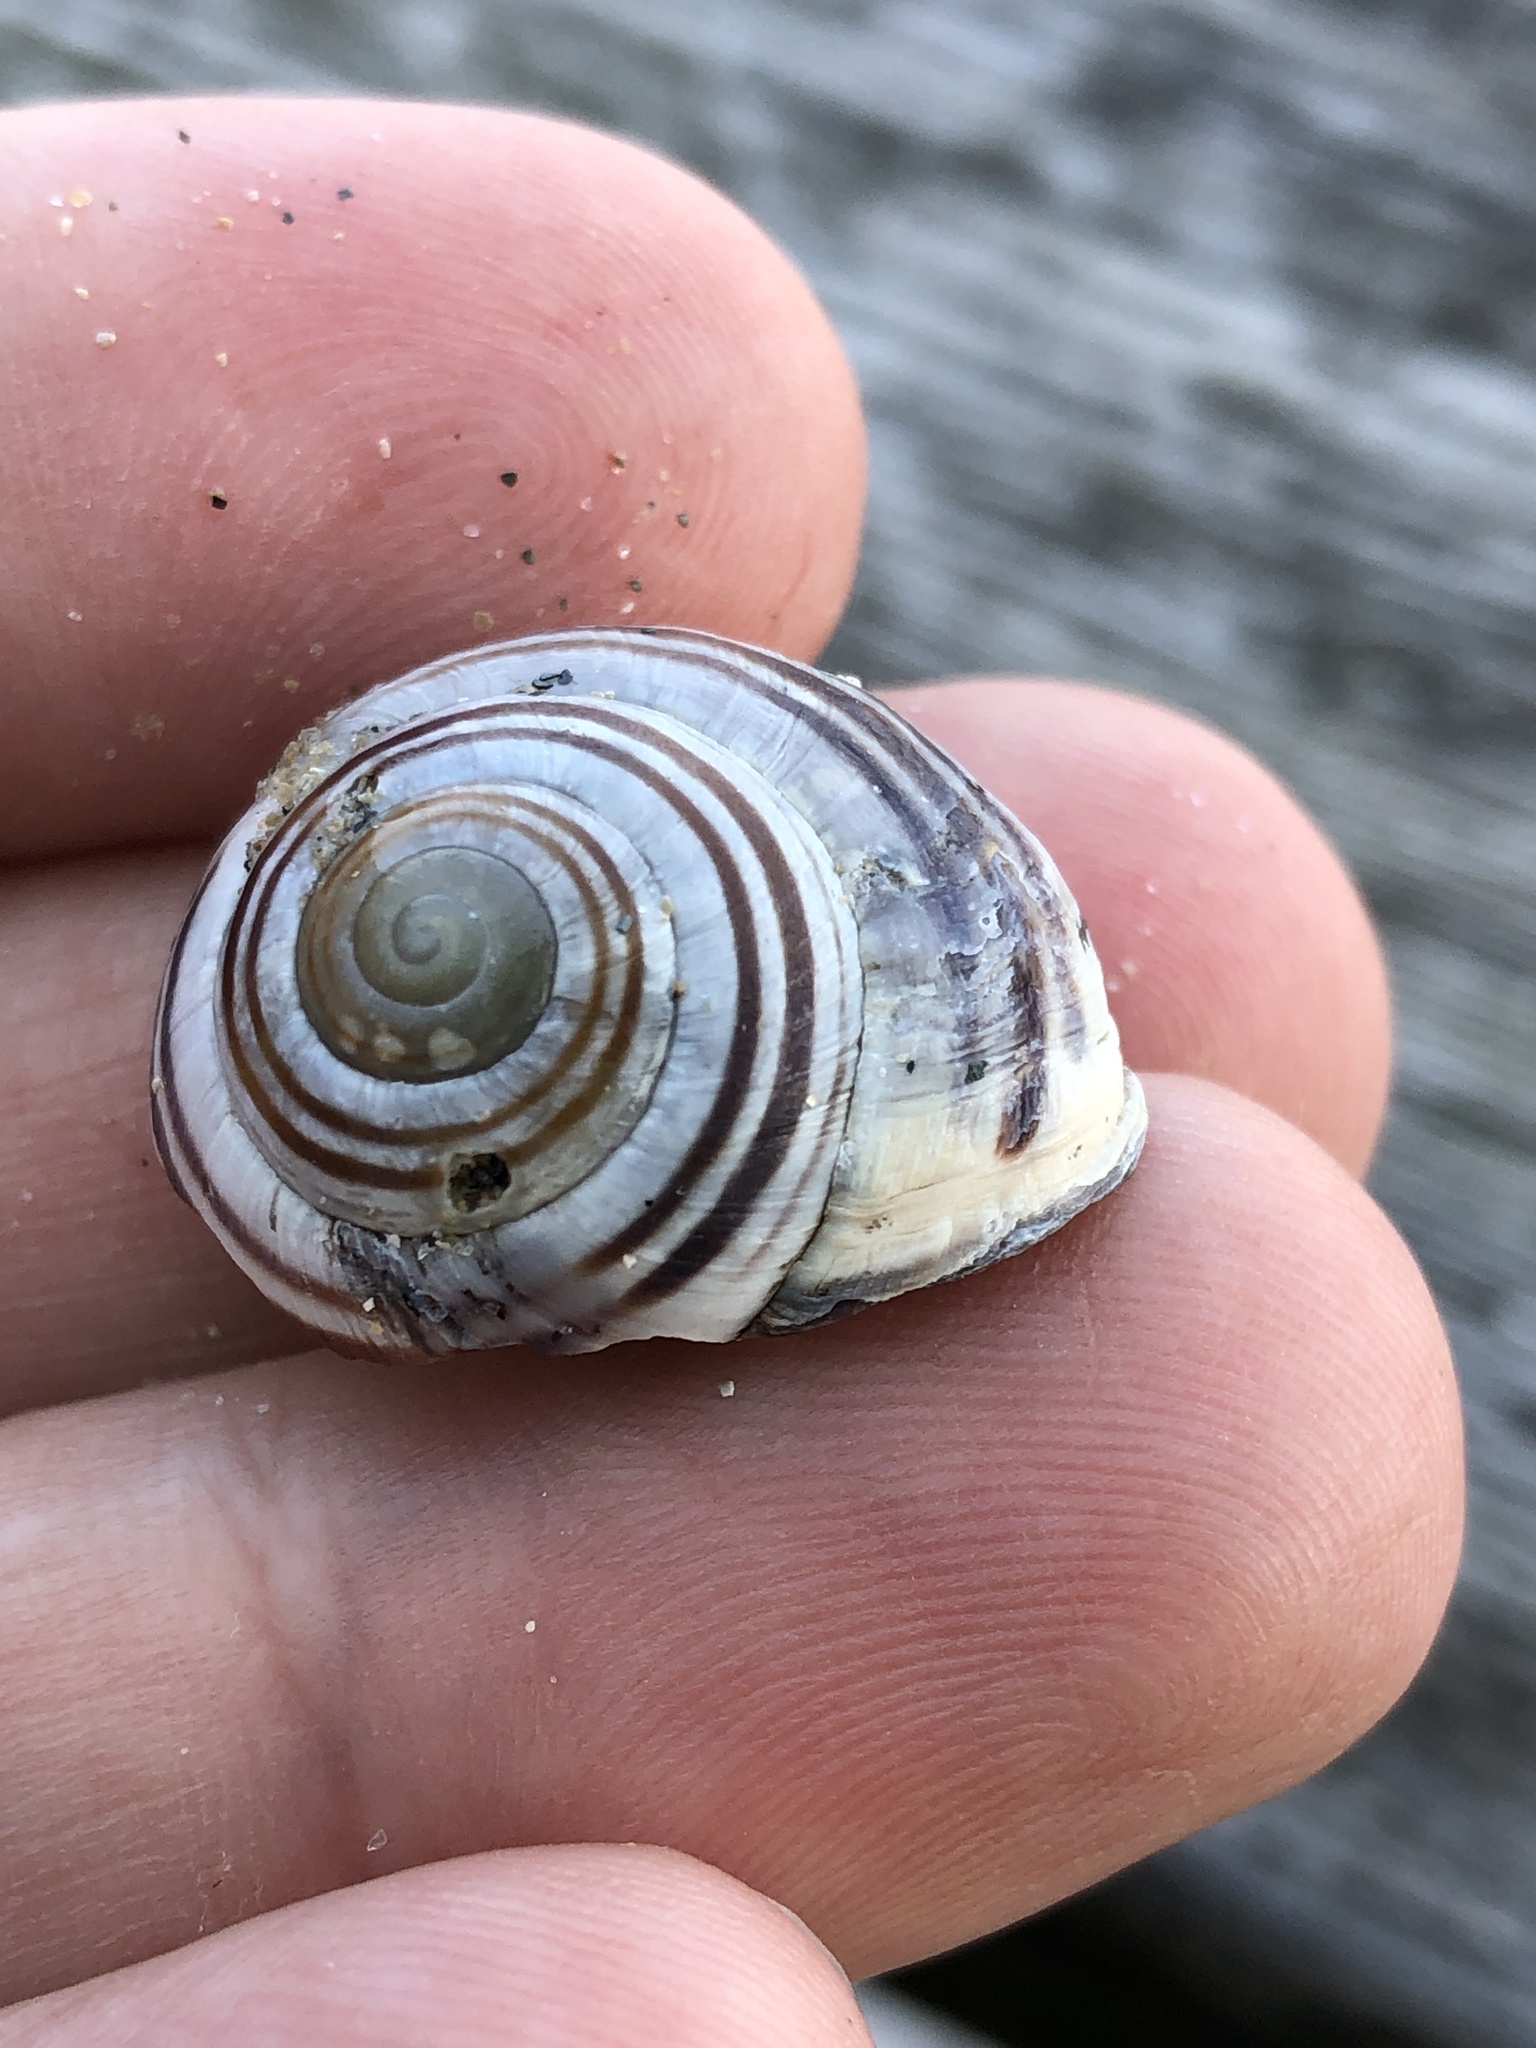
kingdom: Animalia
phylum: Mollusca
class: Gastropoda
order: Stylommatophora
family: Helicidae
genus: Cepaea
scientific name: Cepaea nemoralis
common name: Grovesnail
